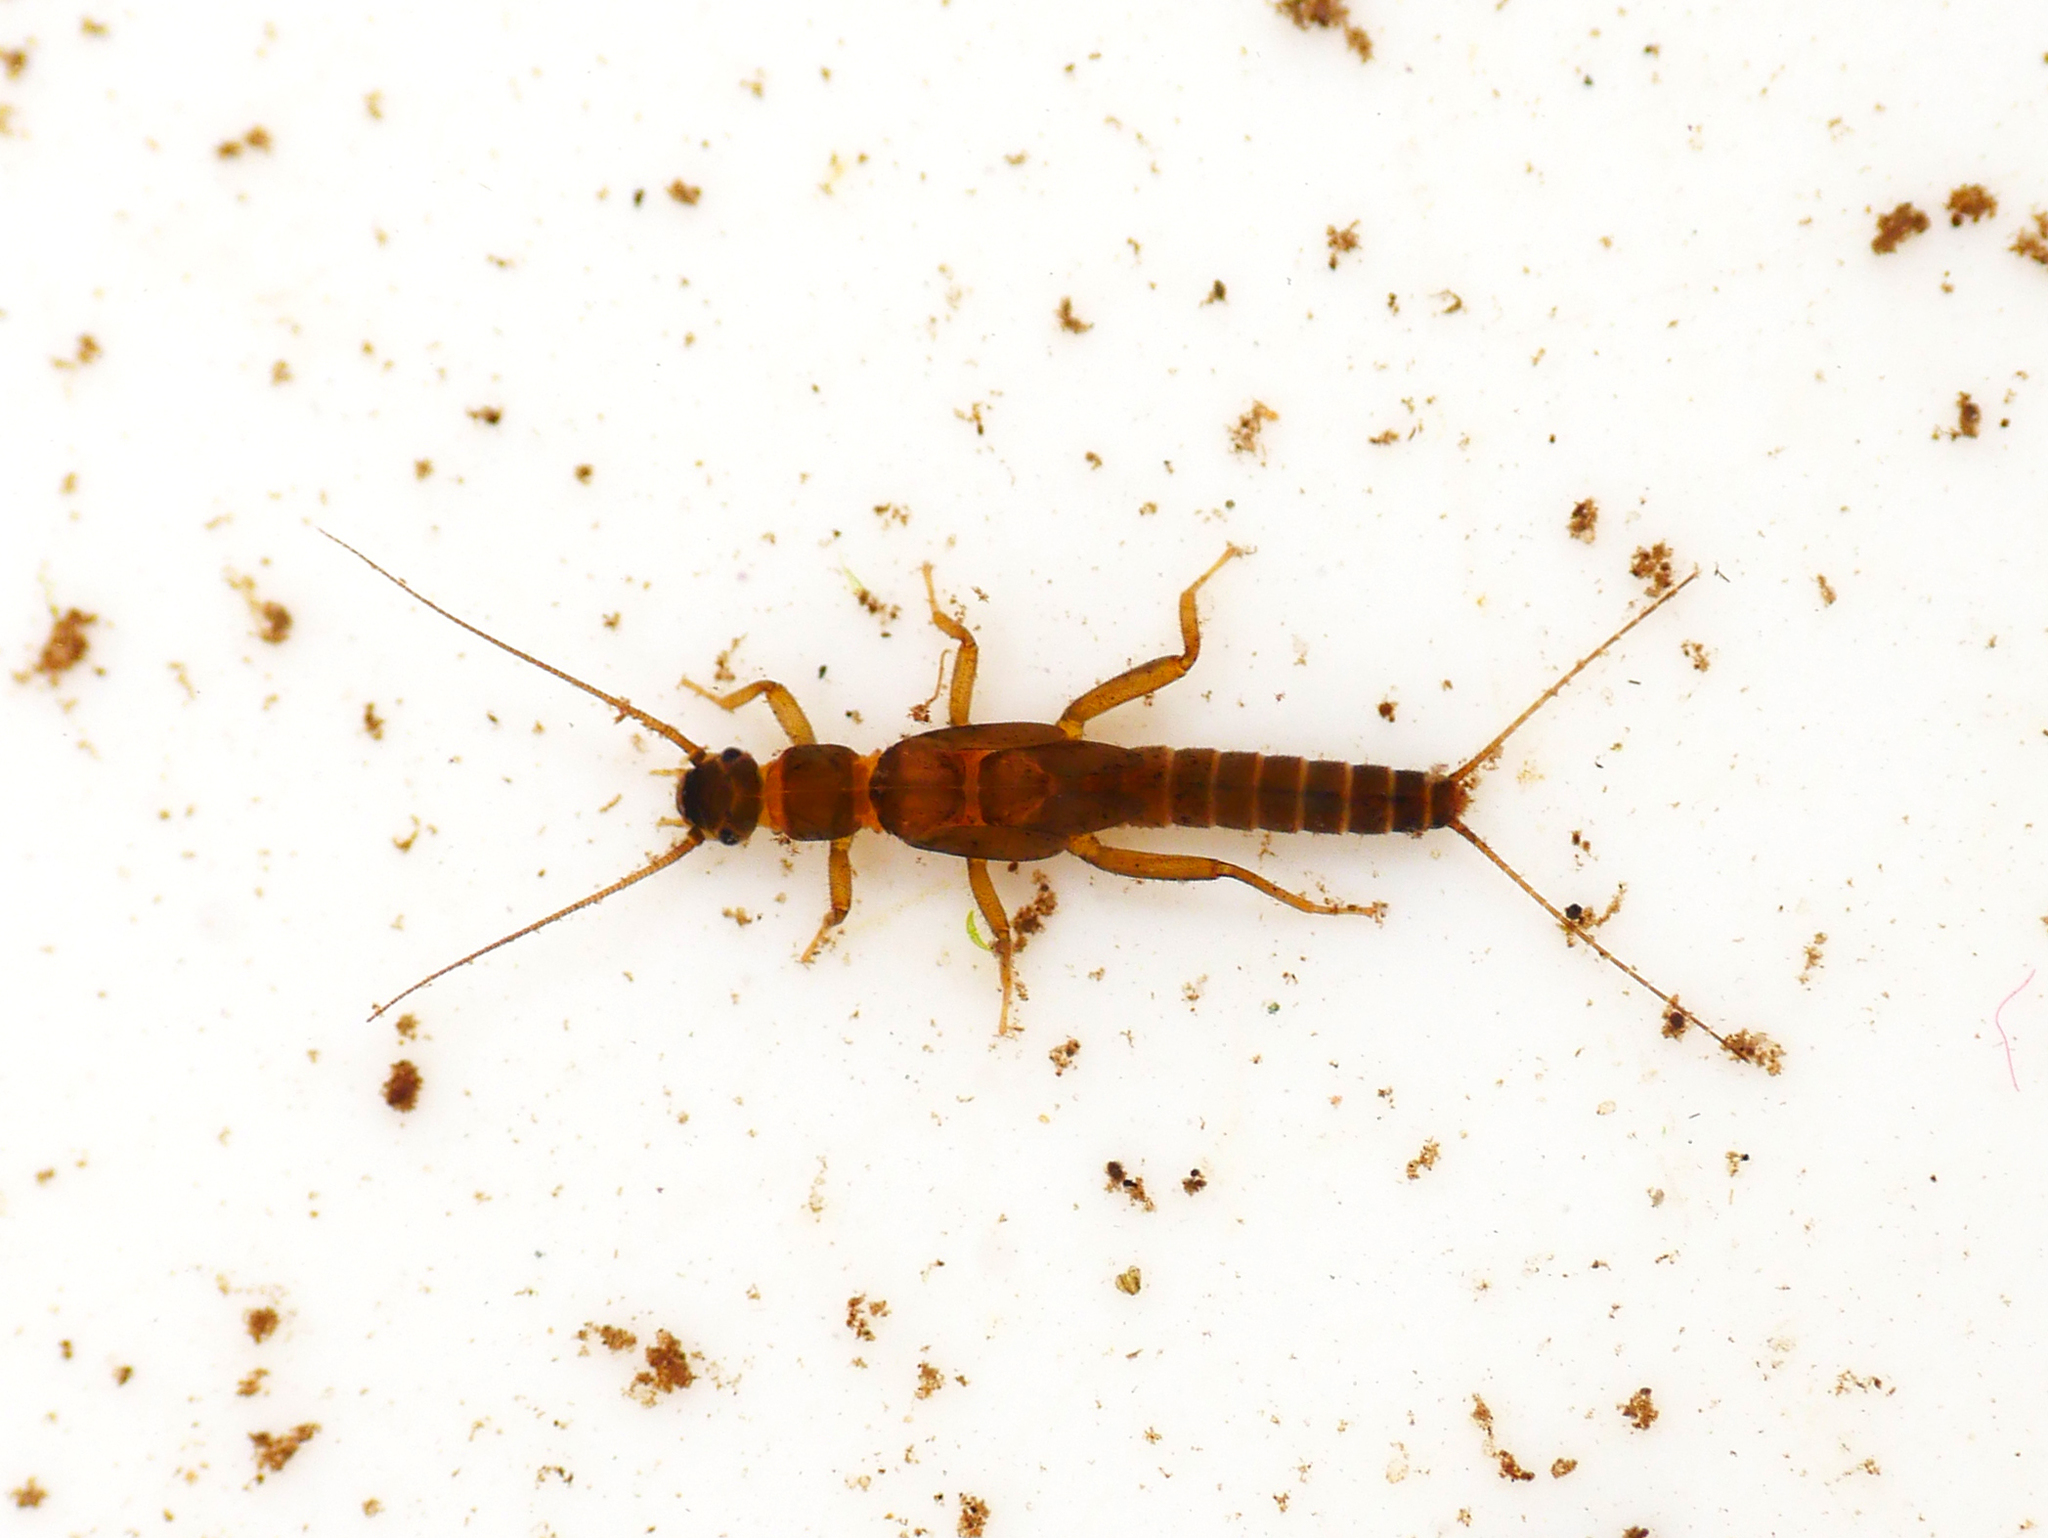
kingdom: Animalia
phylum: Arthropoda
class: Insecta
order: Plecoptera
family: Leuctridae
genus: Leuctra
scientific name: Leuctra fusca
